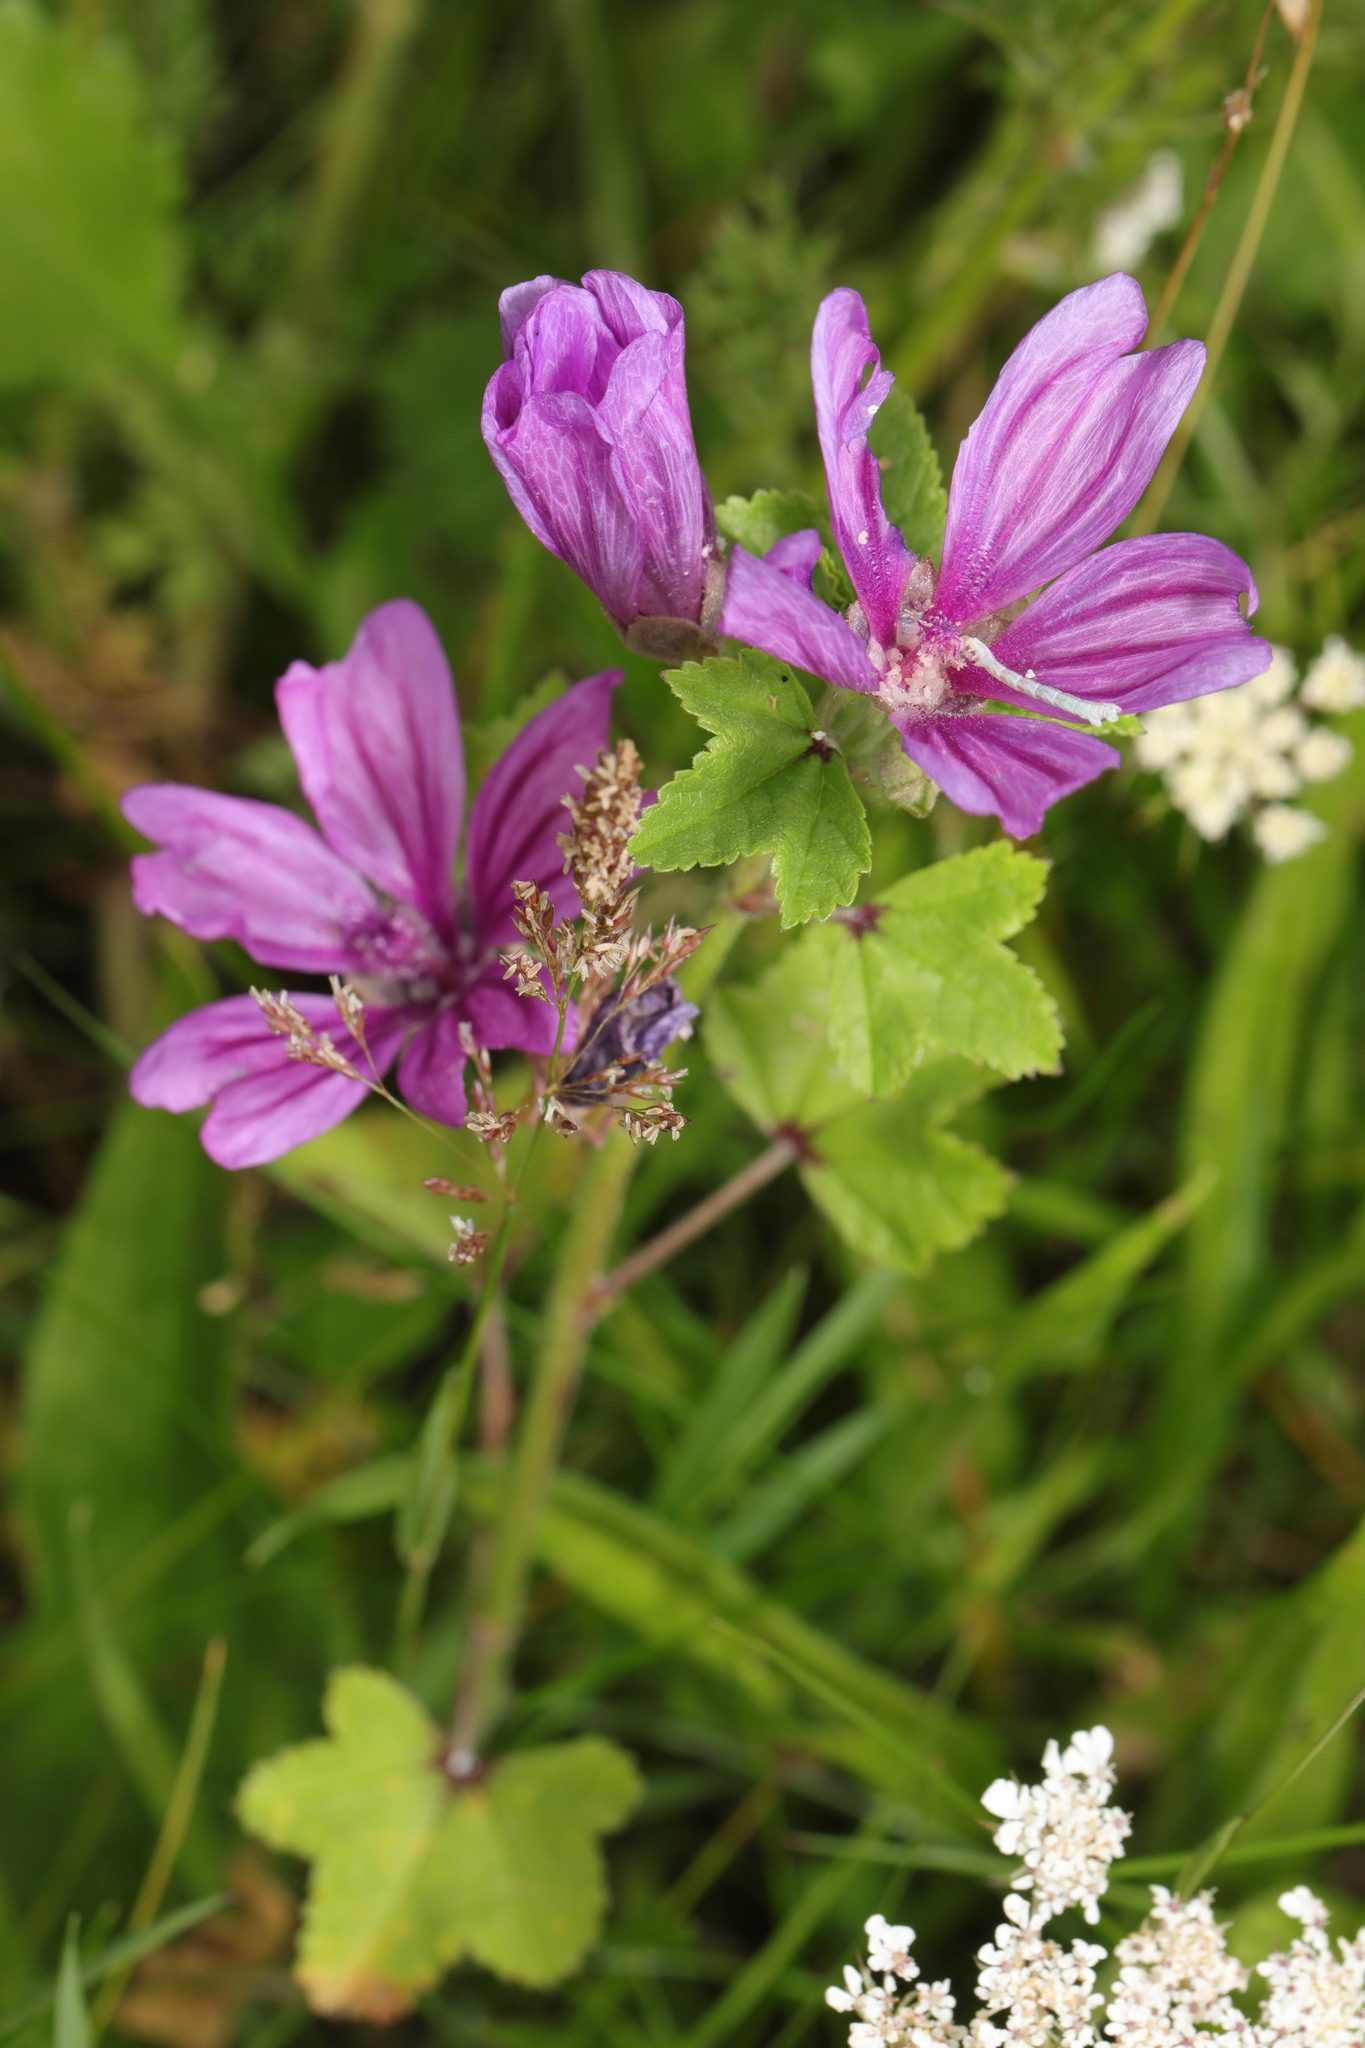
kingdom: Plantae
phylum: Tracheophyta
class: Magnoliopsida
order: Malvales
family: Malvaceae
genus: Malva
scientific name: Malva sylvestris
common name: Common mallow
